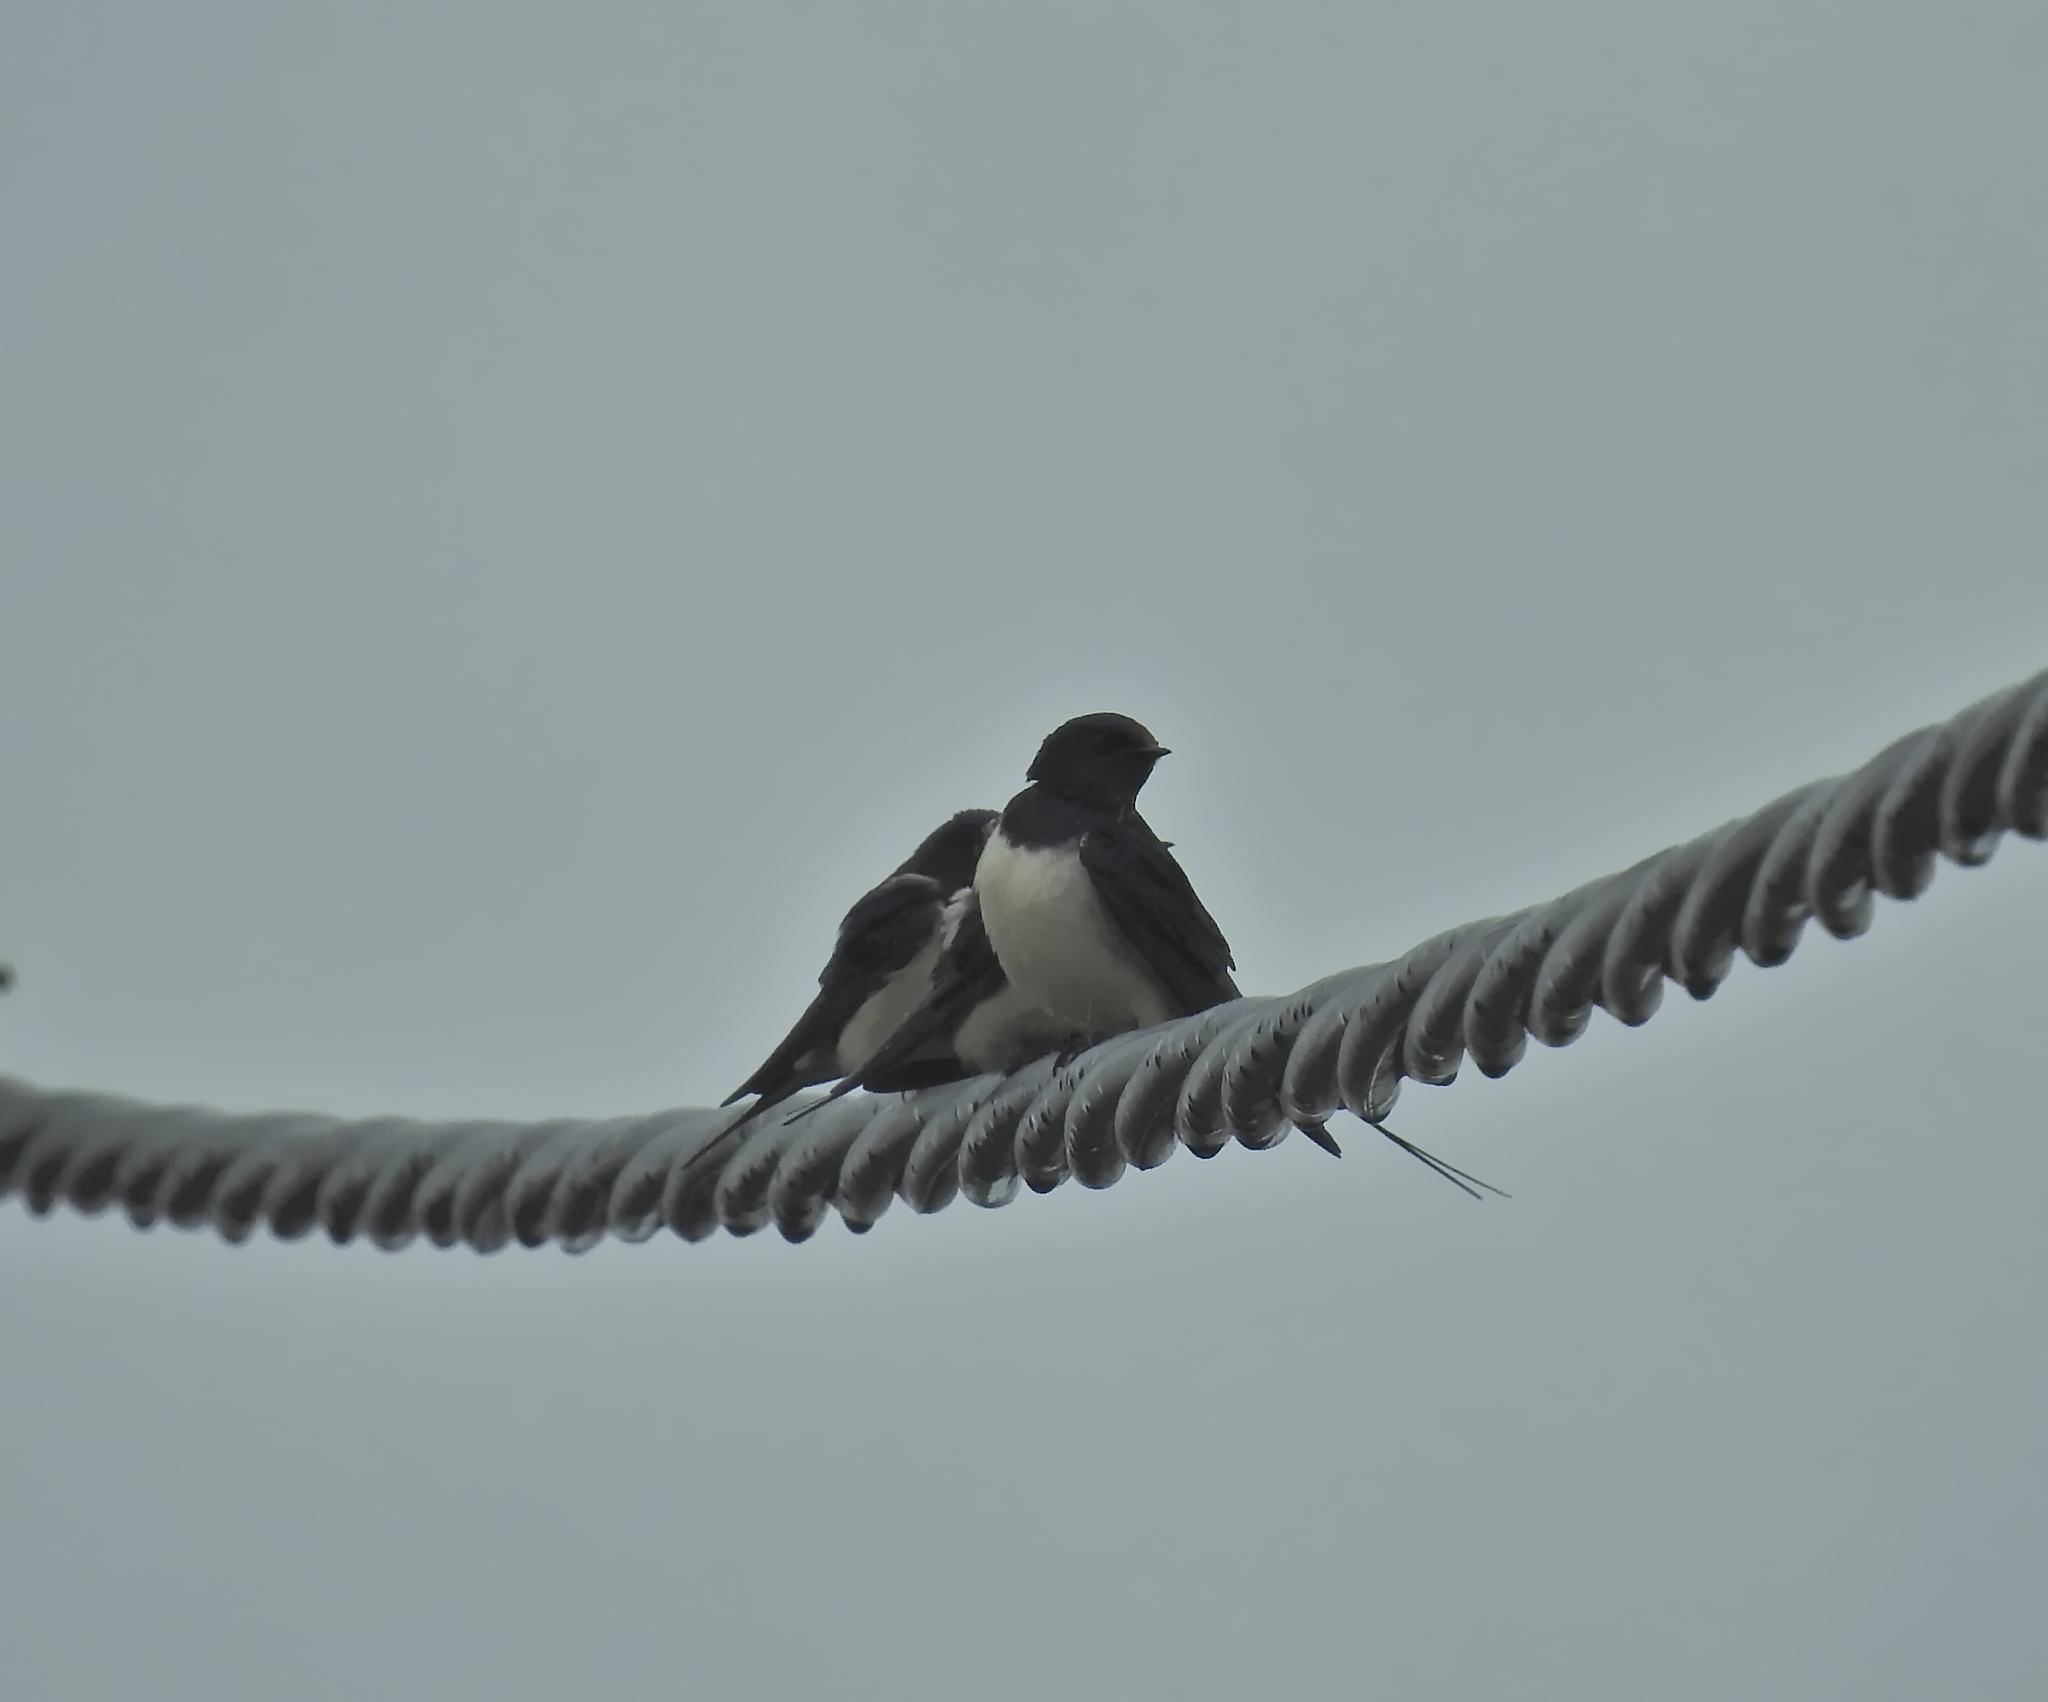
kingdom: Animalia
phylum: Chordata
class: Aves
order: Passeriformes
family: Hirundinidae
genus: Hirundo
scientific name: Hirundo rustica
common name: Barn swallow
